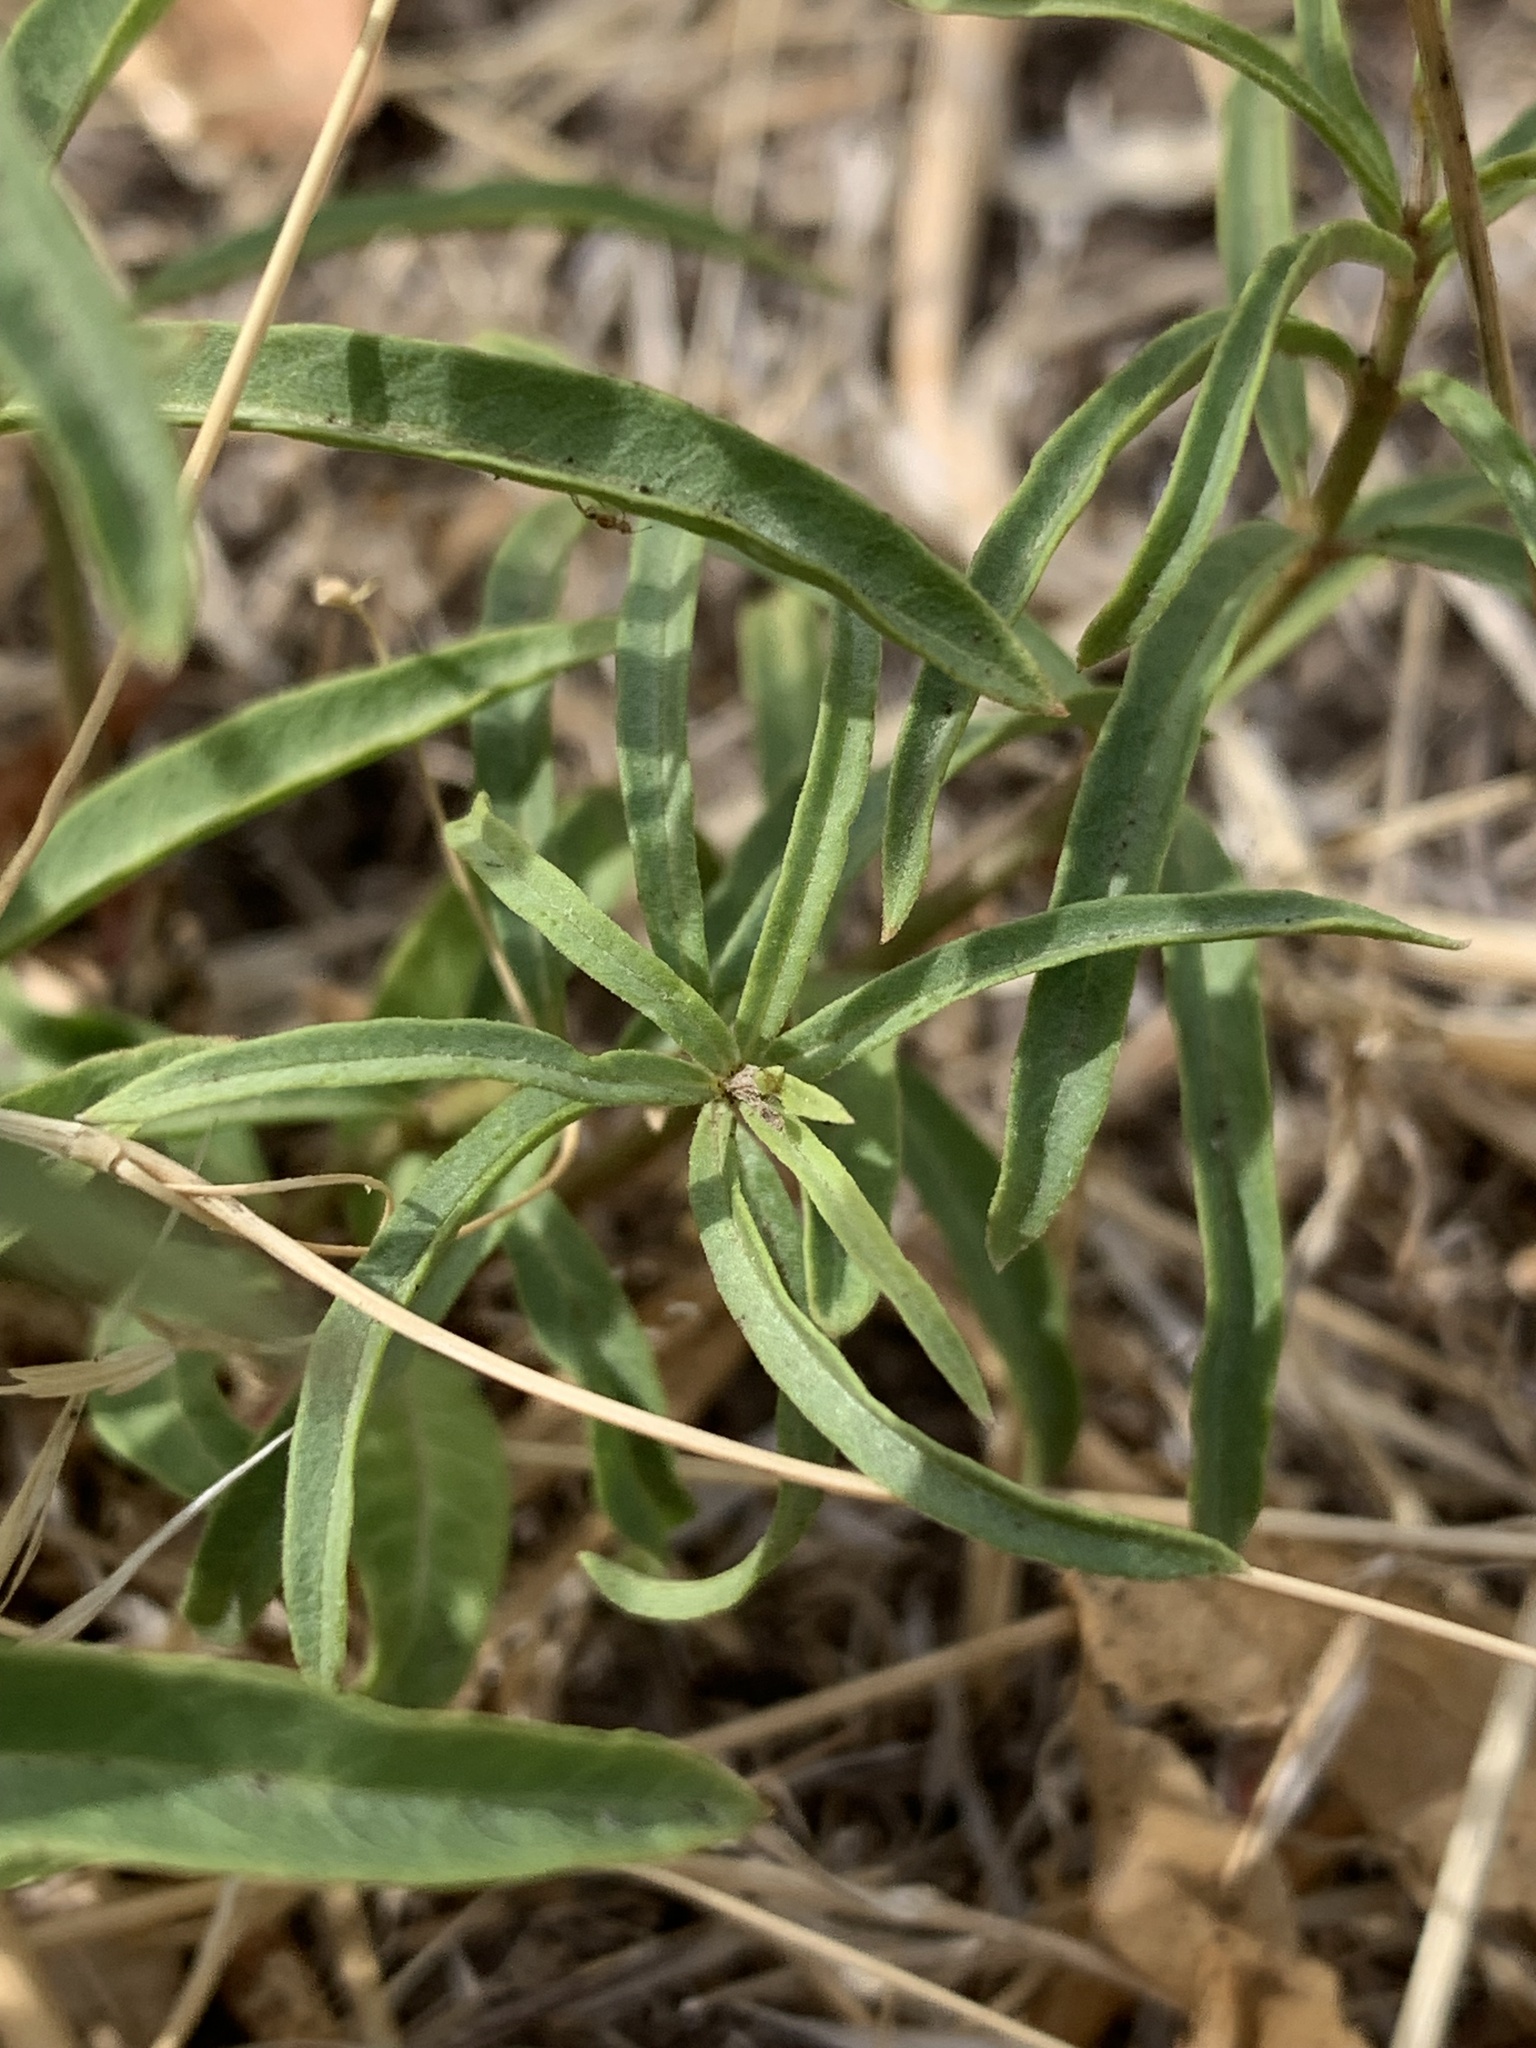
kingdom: Plantae
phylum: Tracheophyta
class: Magnoliopsida
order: Gentianales
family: Apocynaceae
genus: Asclepias
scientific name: Asclepias fascicularis
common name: Mexican milkweed
